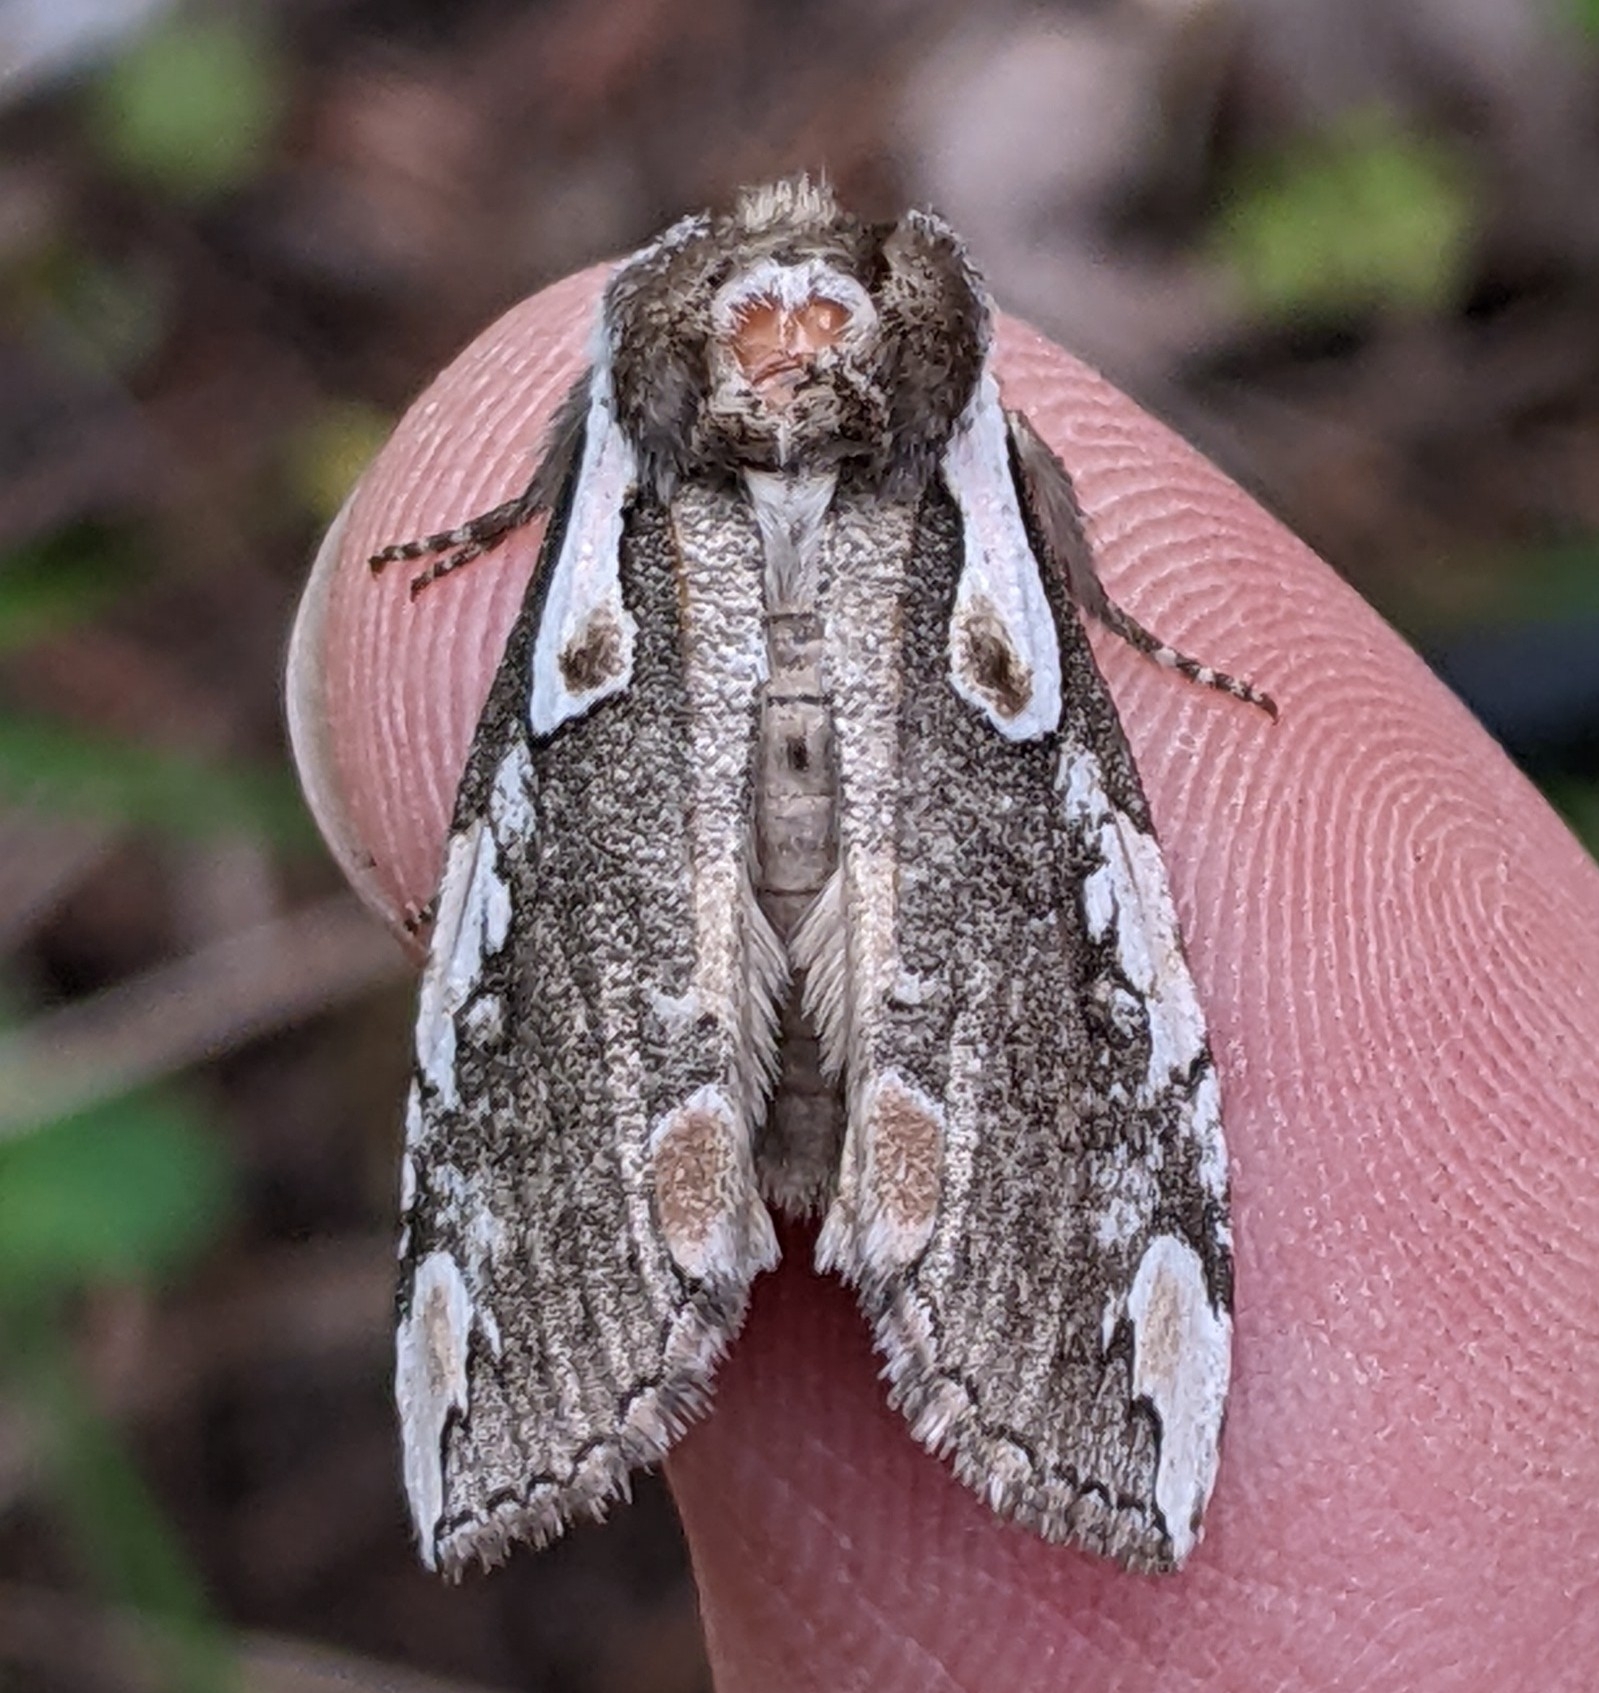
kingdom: Animalia
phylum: Arthropoda
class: Insecta
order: Lepidoptera
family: Drepanidae
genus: Euthyatira
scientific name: Euthyatira pudens
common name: Dogwood thyatirid moth
